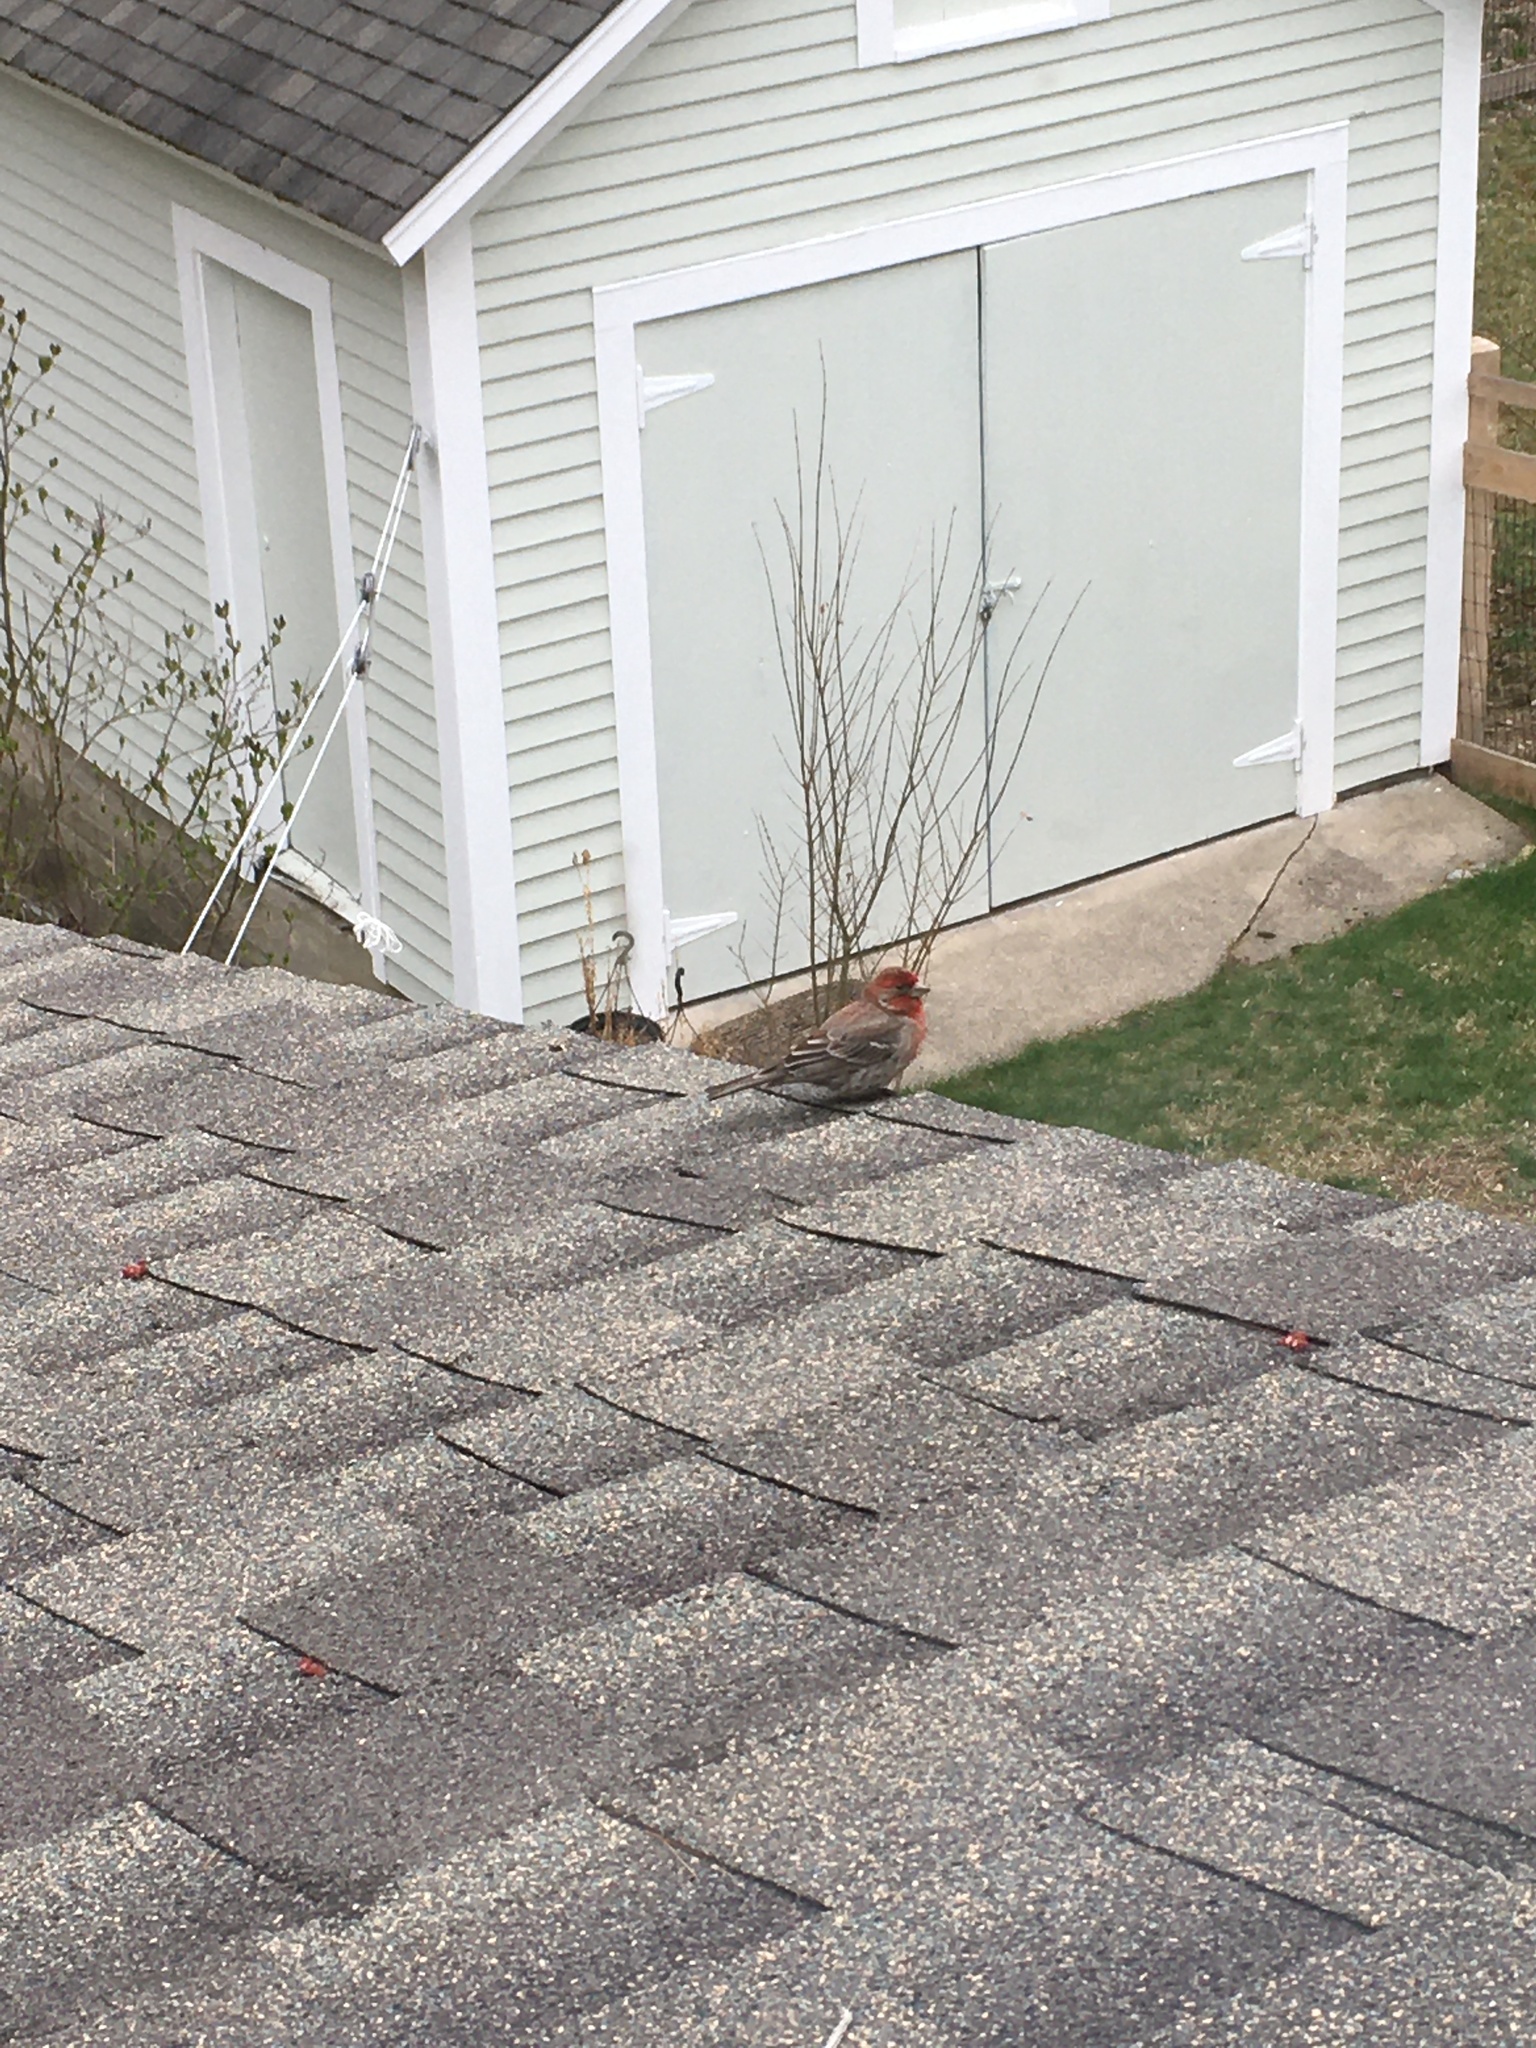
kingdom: Animalia
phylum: Chordata
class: Aves
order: Passeriformes
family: Fringillidae
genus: Haemorhous
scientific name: Haemorhous mexicanus
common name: House finch
